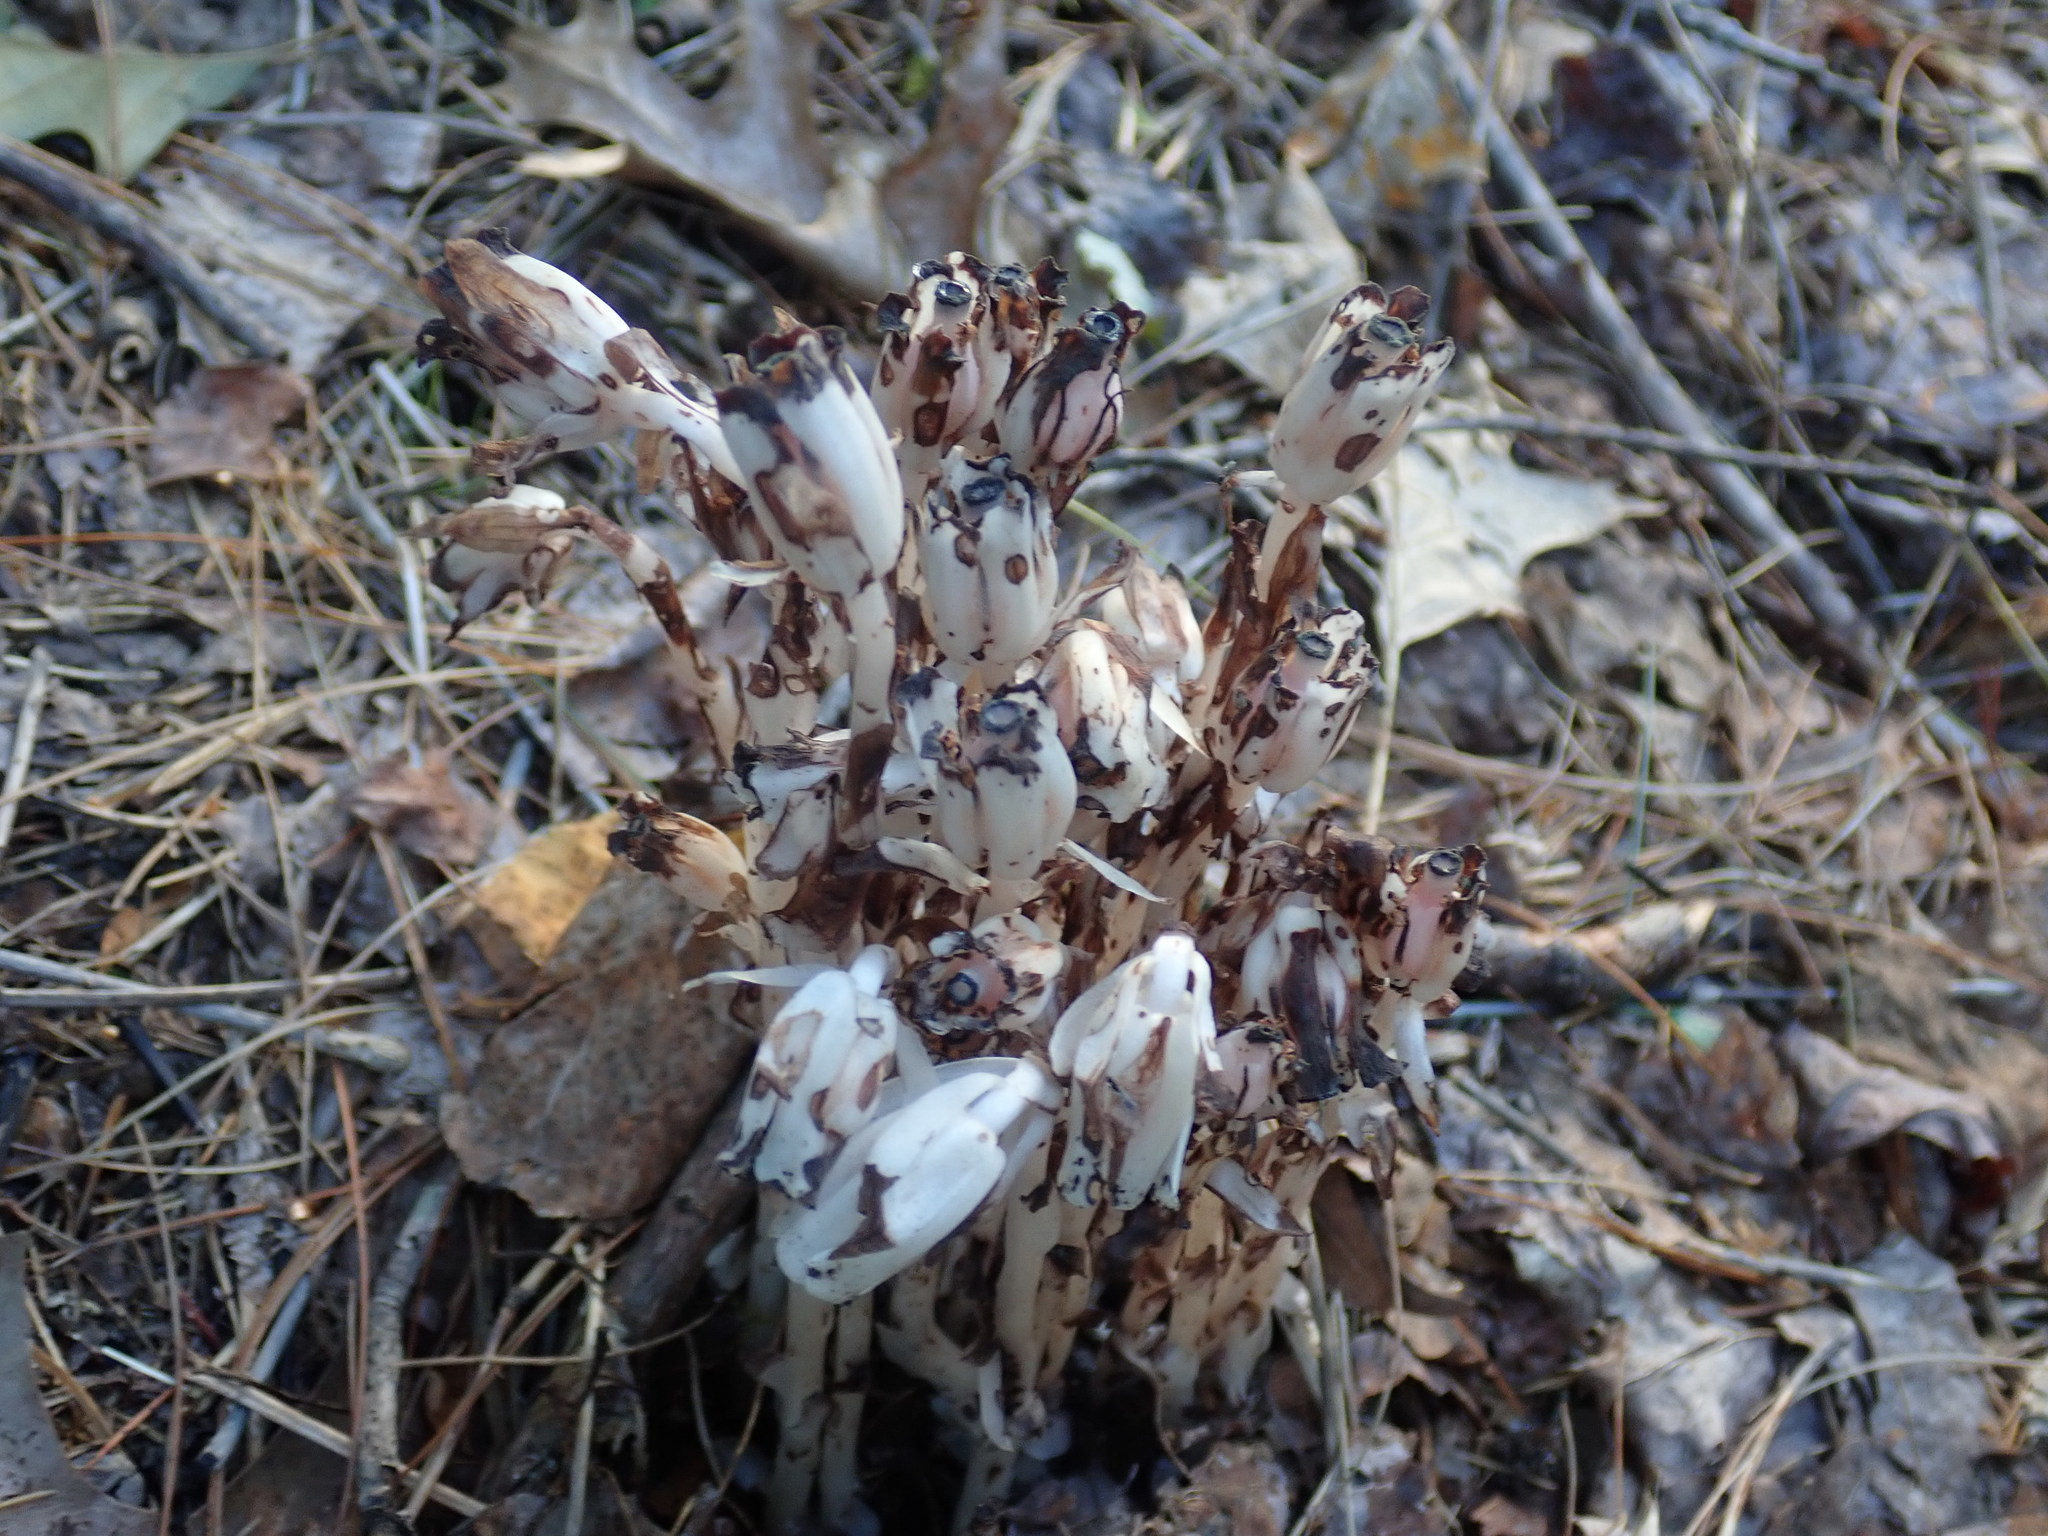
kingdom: Plantae
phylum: Tracheophyta
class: Magnoliopsida
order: Ericales
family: Ericaceae
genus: Monotropa
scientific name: Monotropa uniflora
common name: Convulsion root
